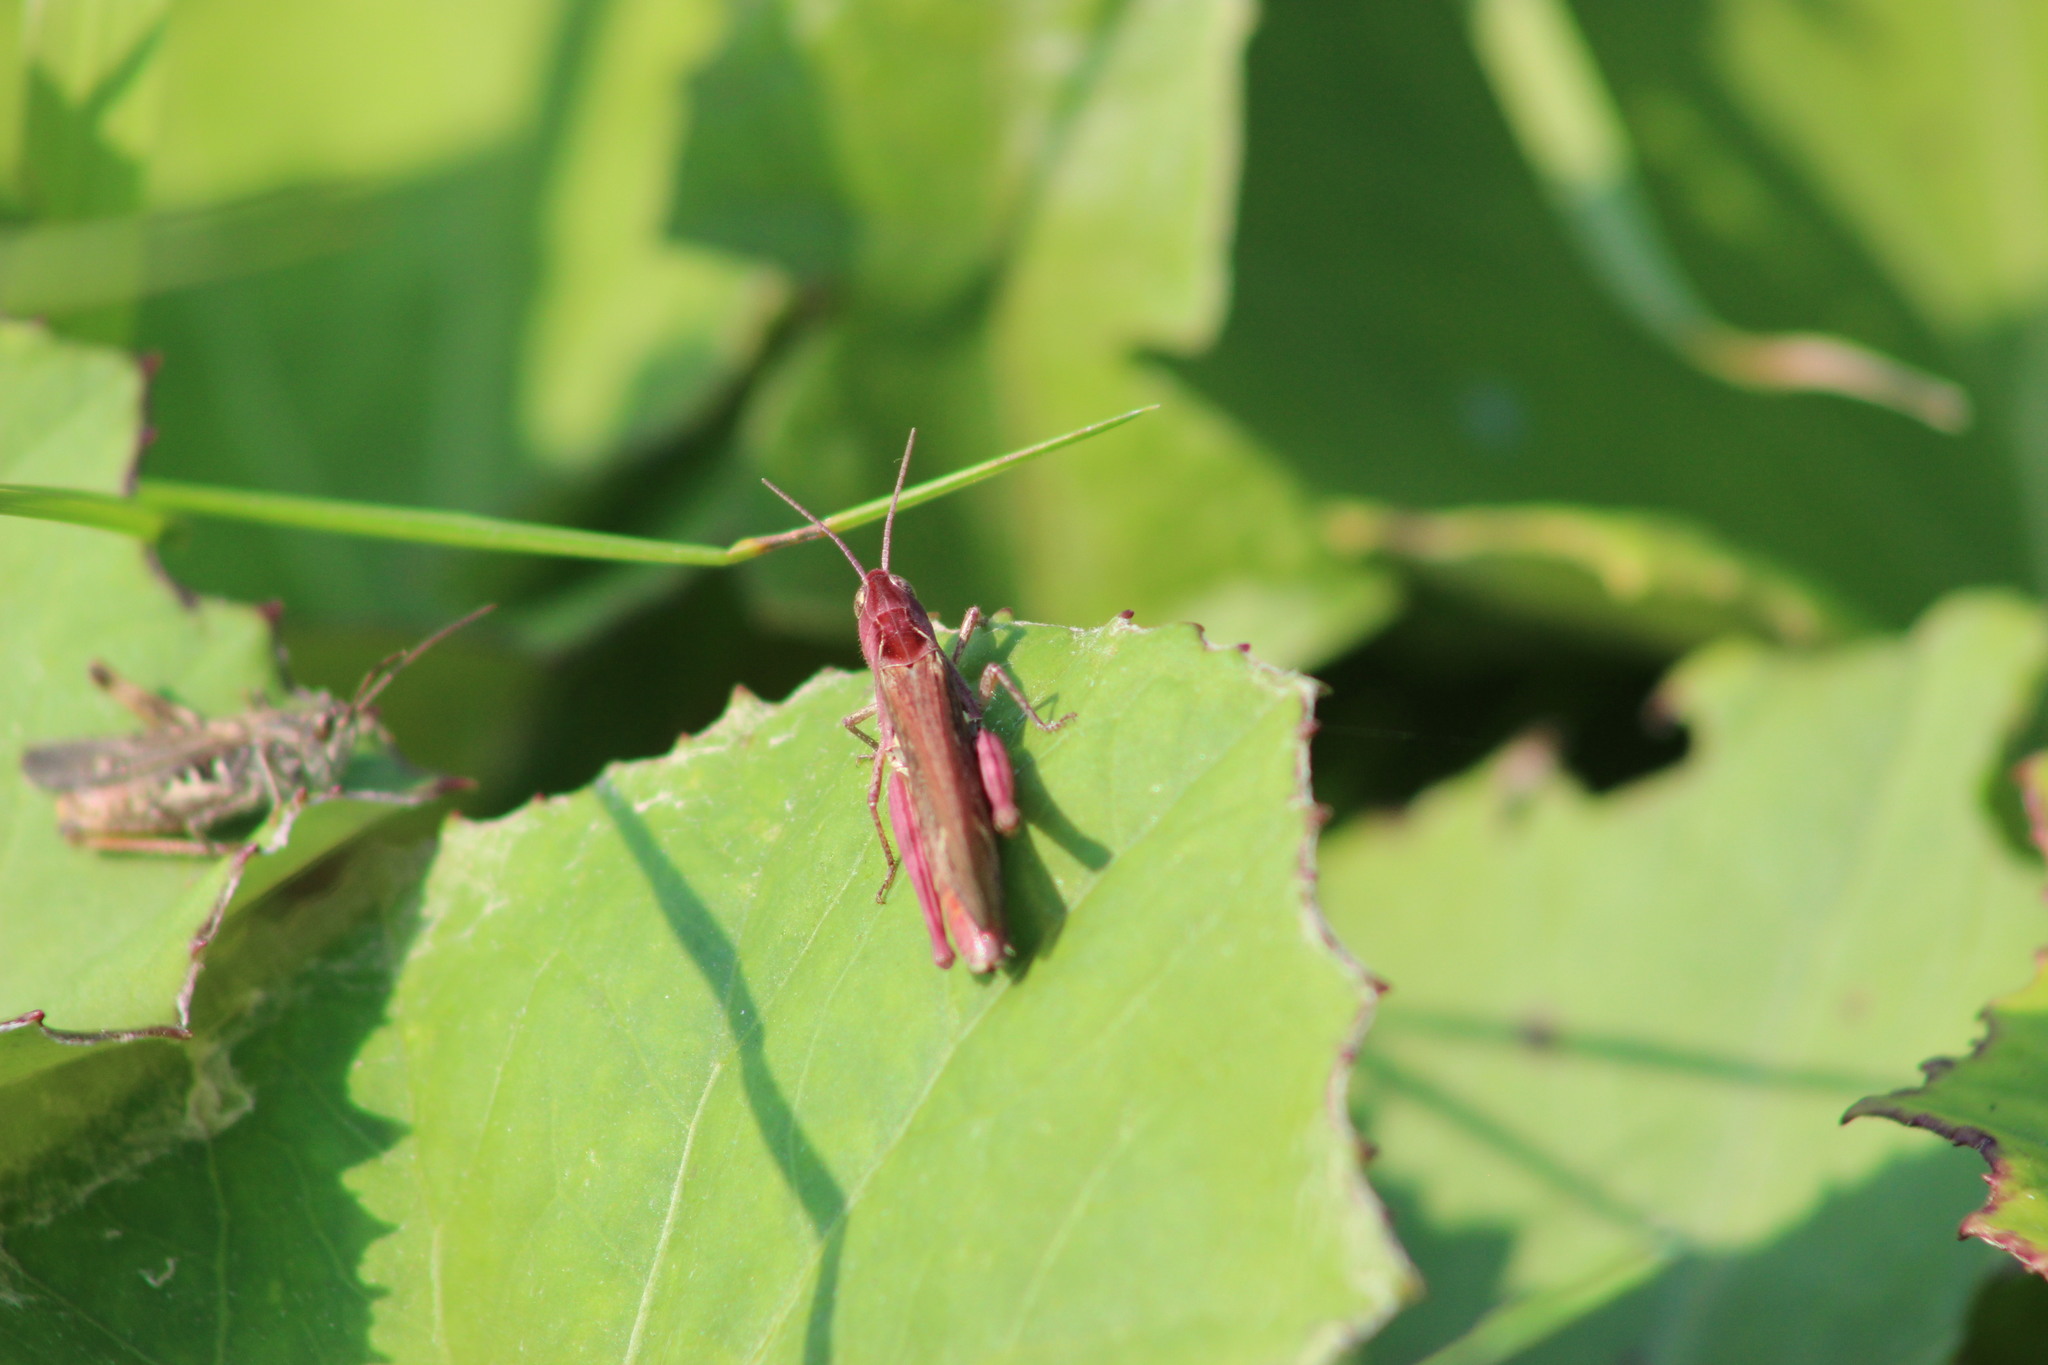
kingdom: Animalia
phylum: Arthropoda
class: Insecta
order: Orthoptera
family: Acrididae
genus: Glyptobothrus
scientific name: Glyptobothrus
